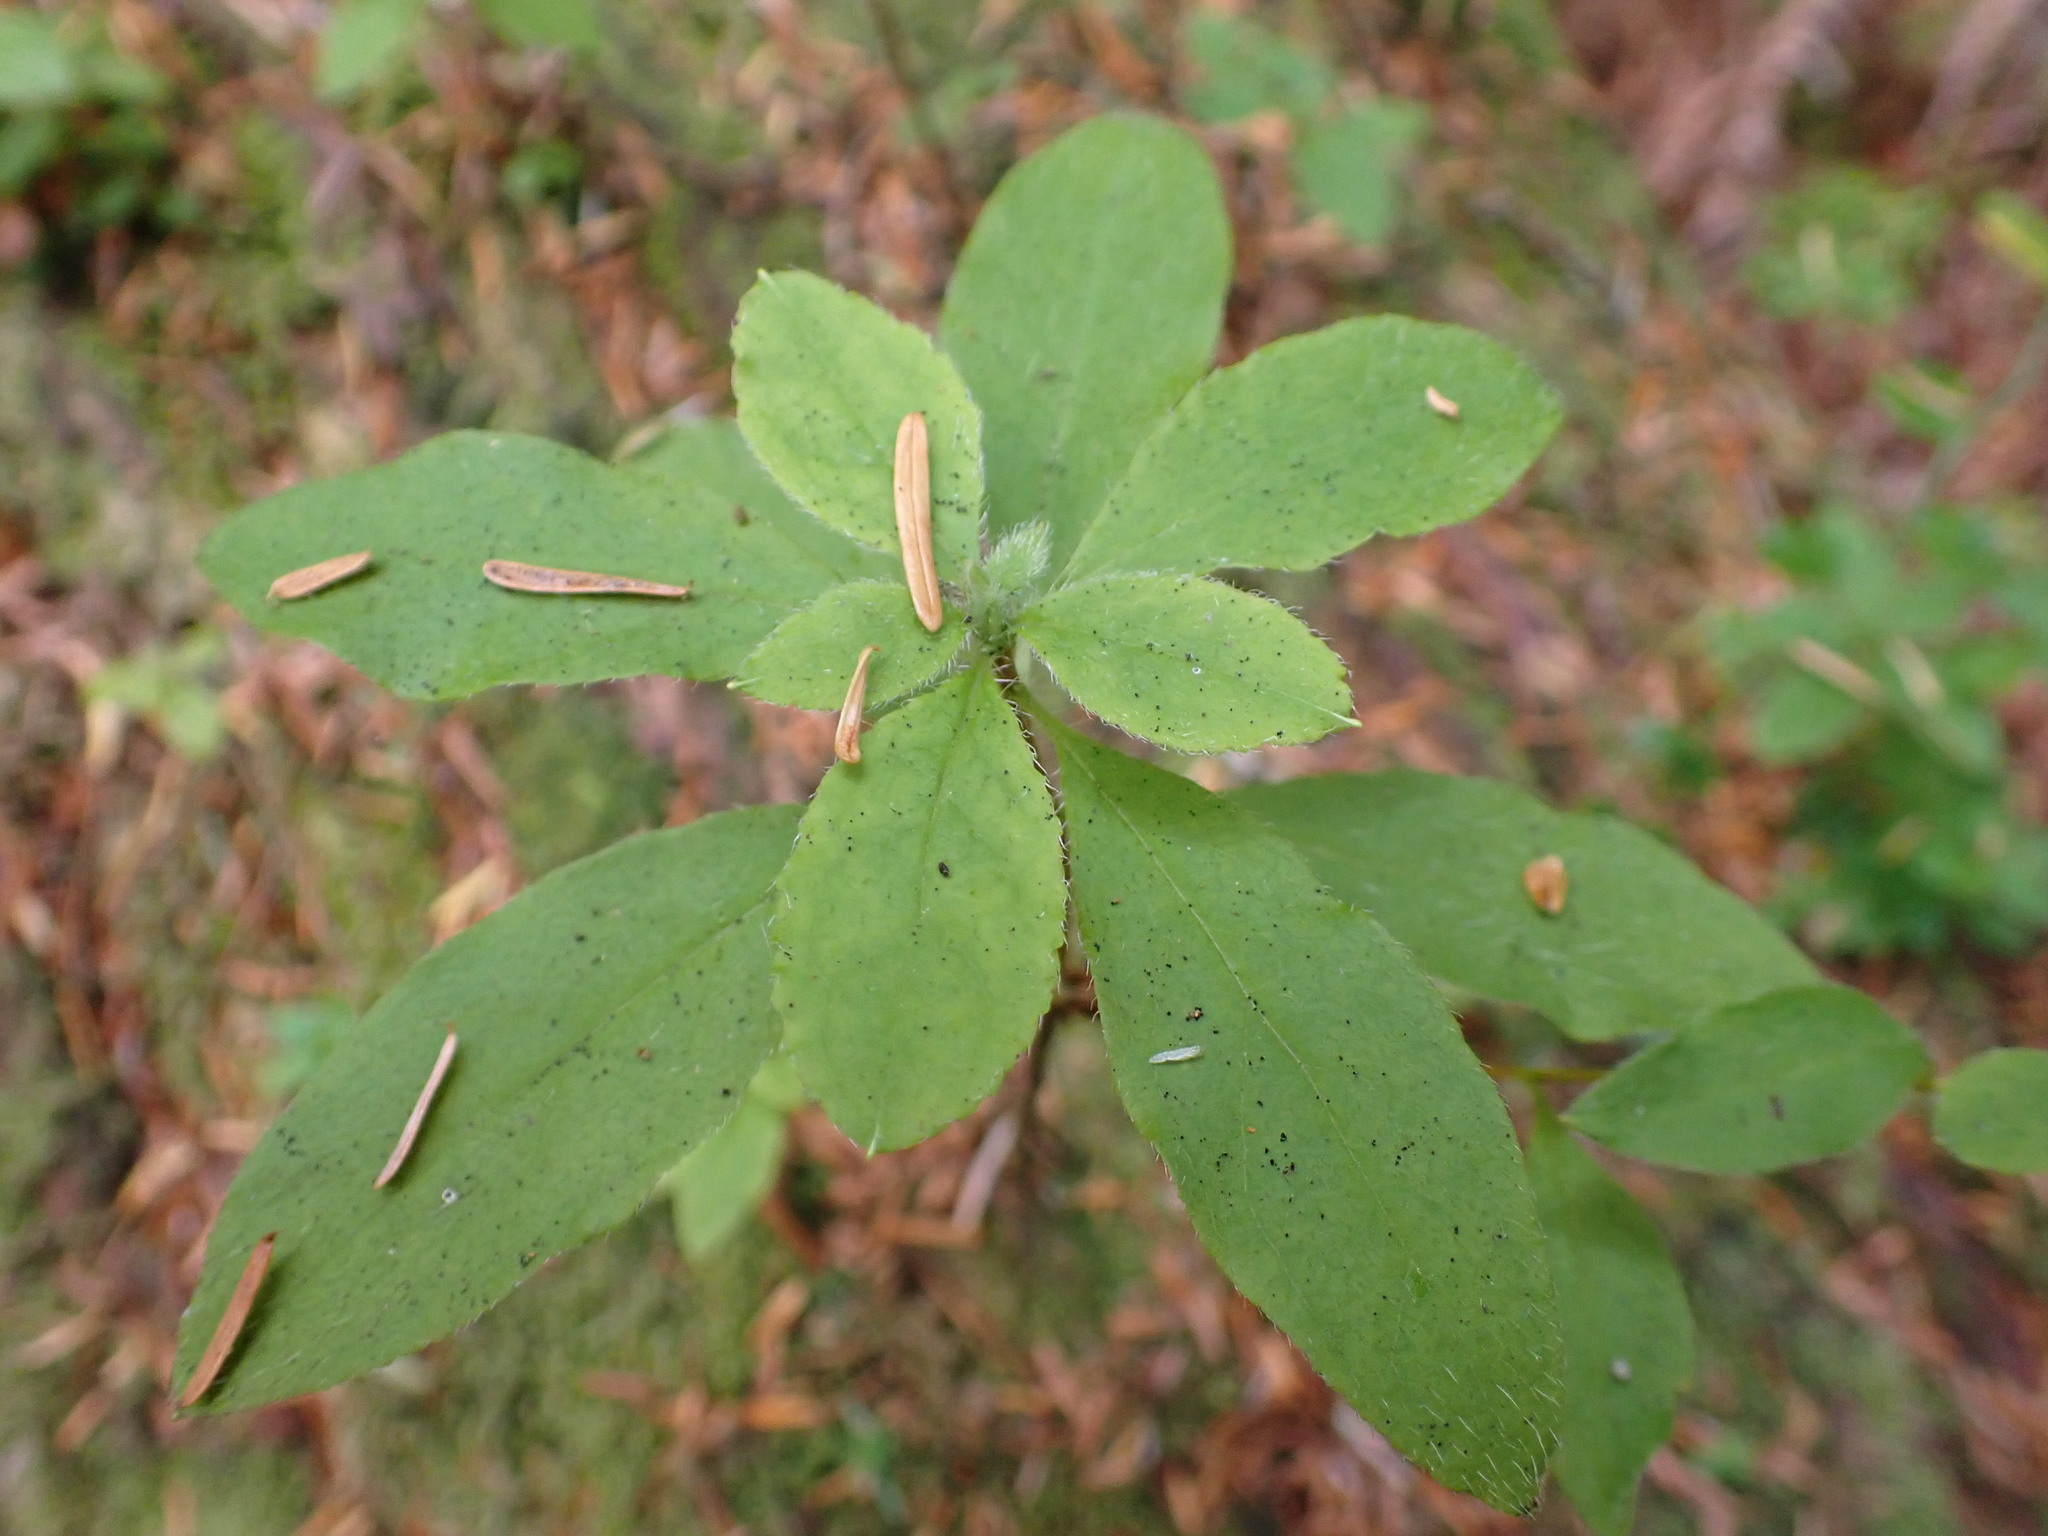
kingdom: Plantae
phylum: Tracheophyta
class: Magnoliopsida
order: Ericales
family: Ericaceae
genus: Rhododendron
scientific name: Rhododendron menziesii
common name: Pacific menziesia
